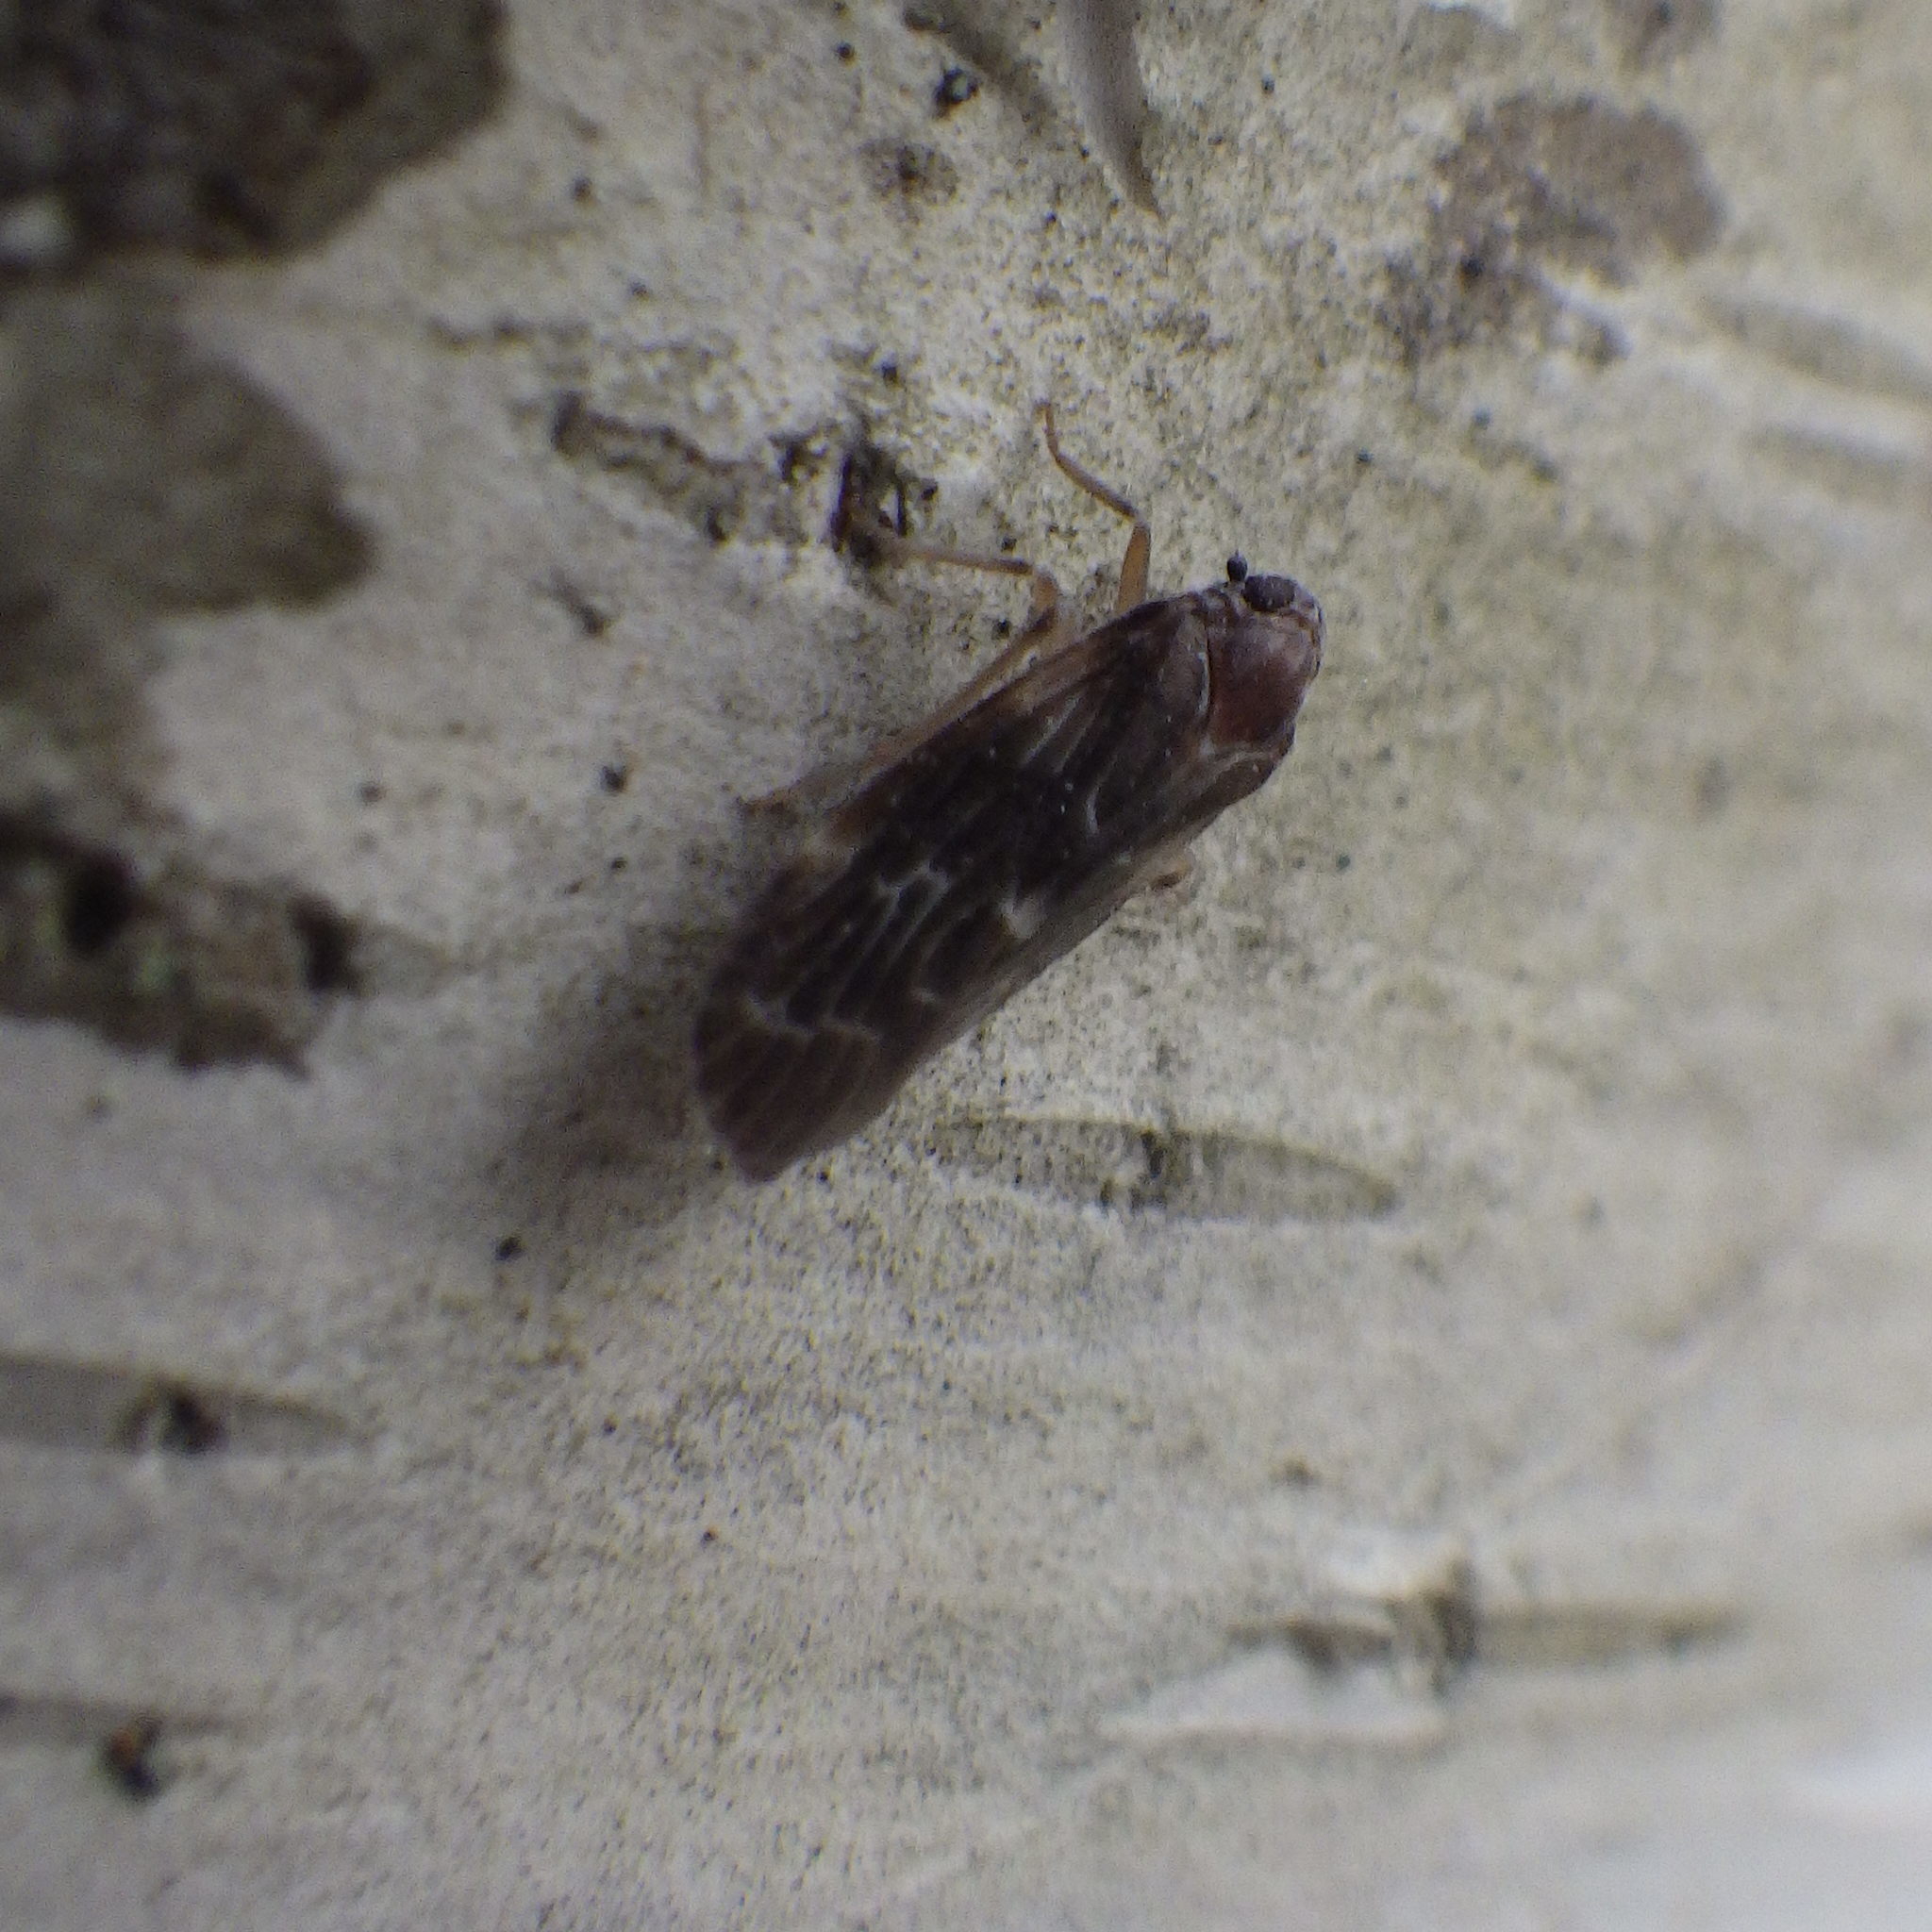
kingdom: Animalia
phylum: Arthropoda
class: Insecta
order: Hemiptera
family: Achilidae
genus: Synecdoche
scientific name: Synecdoche dimidiata
